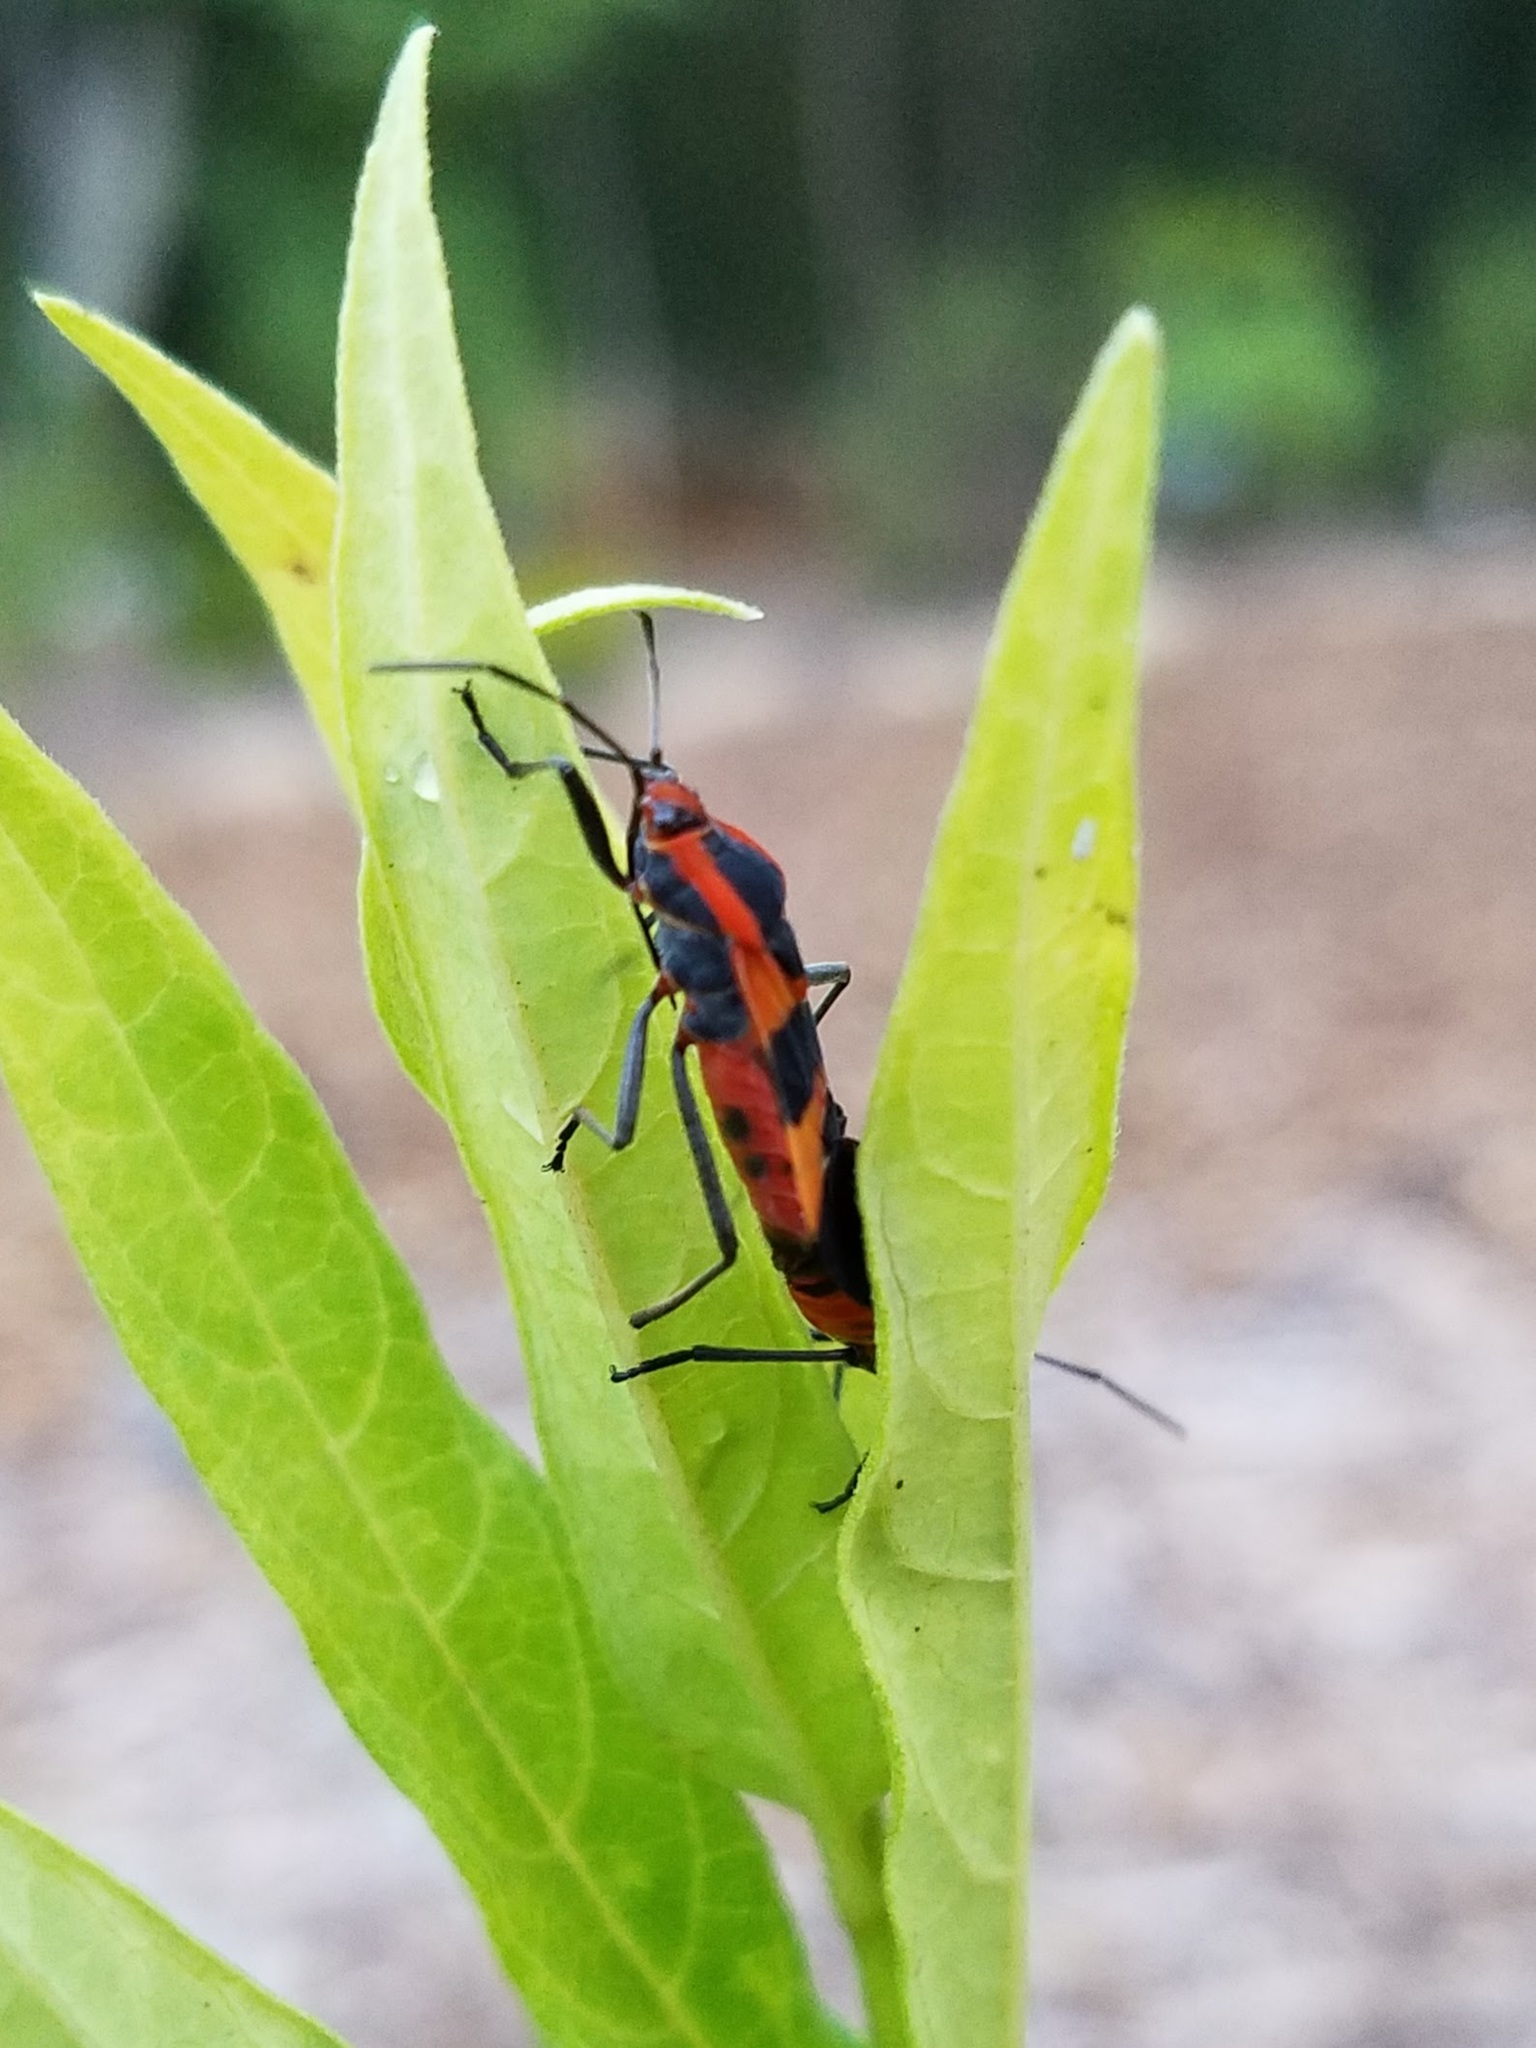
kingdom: Animalia
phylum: Arthropoda
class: Insecta
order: Hemiptera
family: Lygaeidae
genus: Oncopeltus
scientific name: Oncopeltus fasciatus
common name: Large milkweed bug
